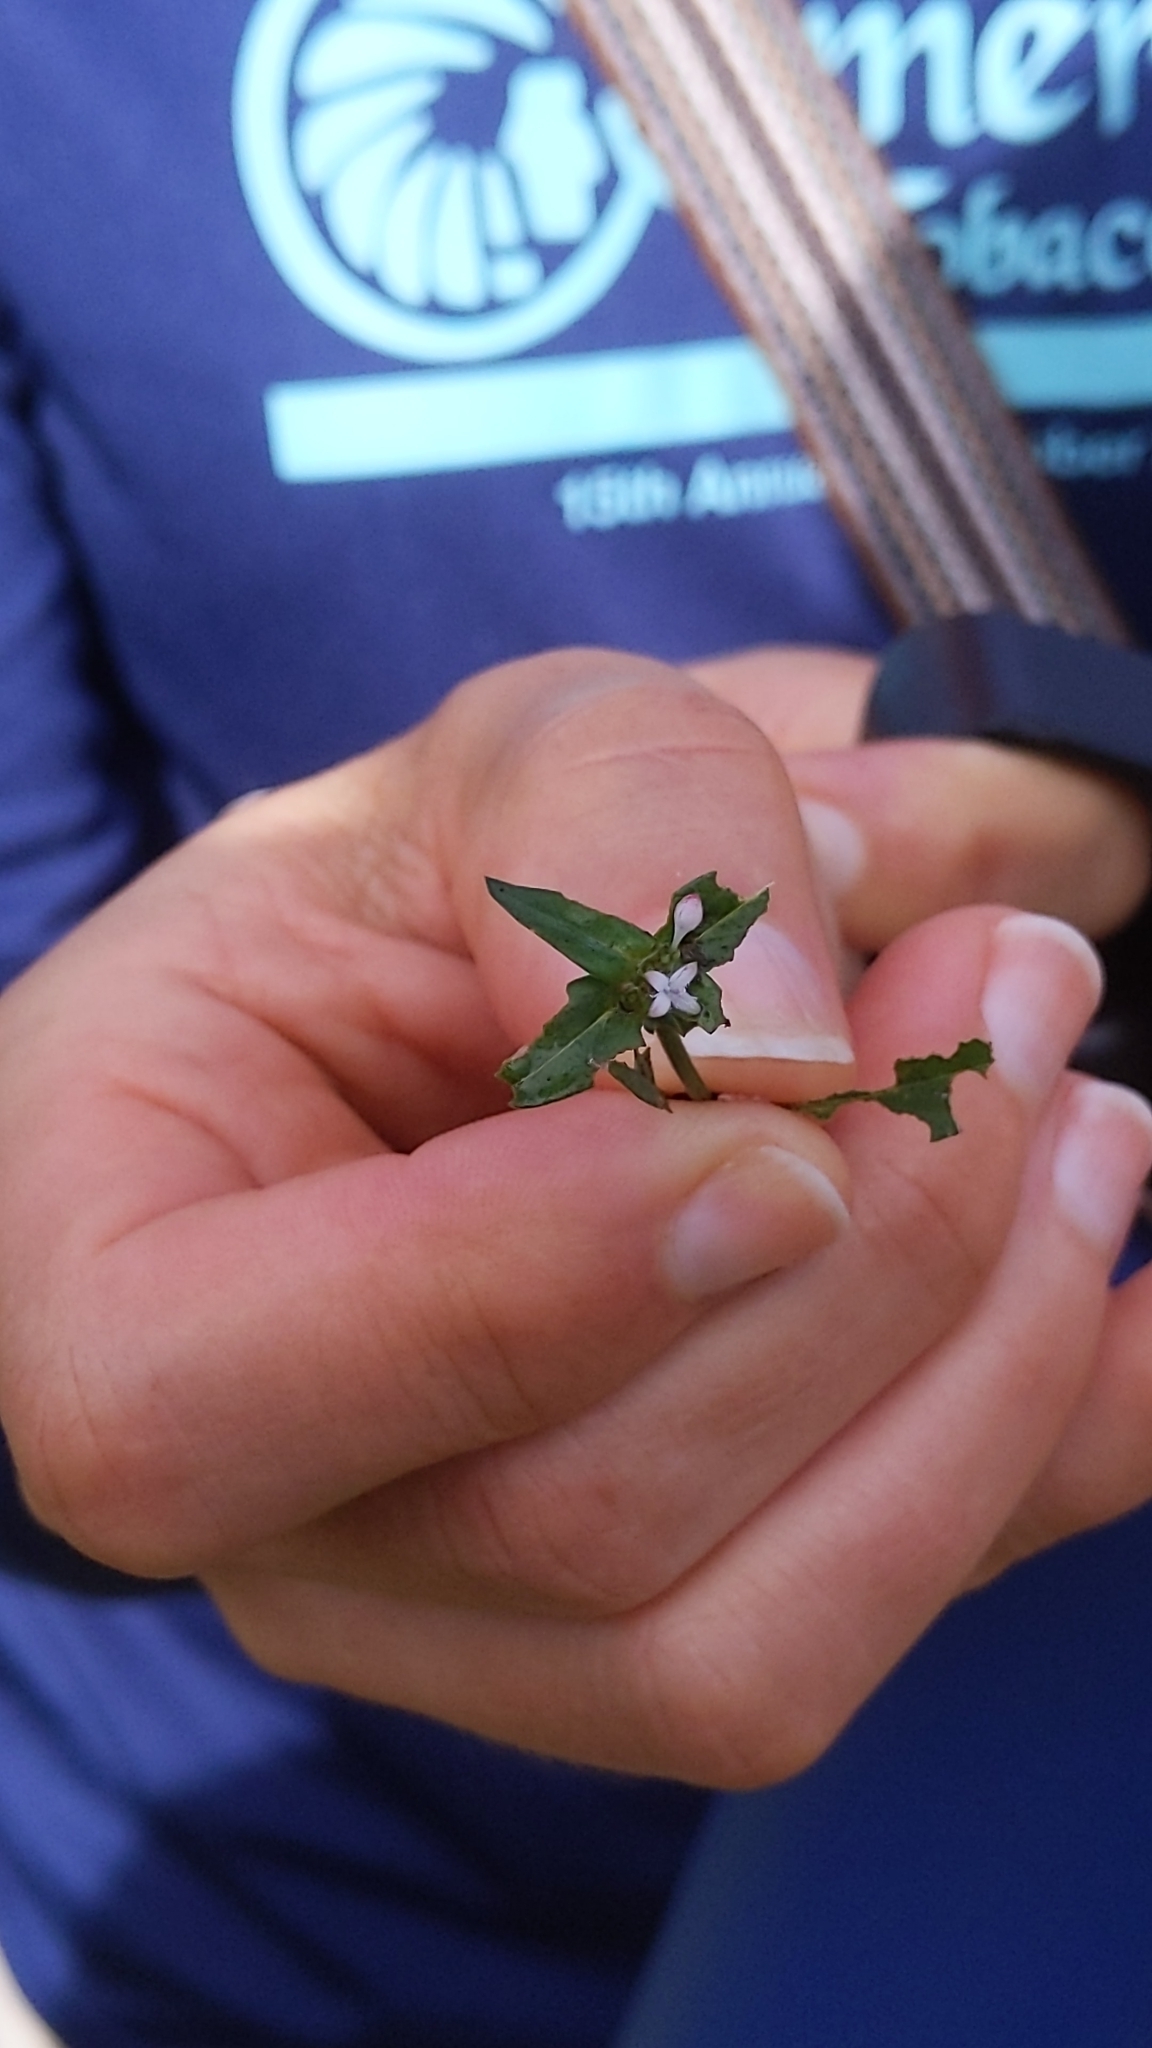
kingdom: Plantae
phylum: Tracheophyta
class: Magnoliopsida
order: Gentianales
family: Rubiaceae
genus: Spermacoce
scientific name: Spermacoce remota
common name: Woodland false buttonweed
